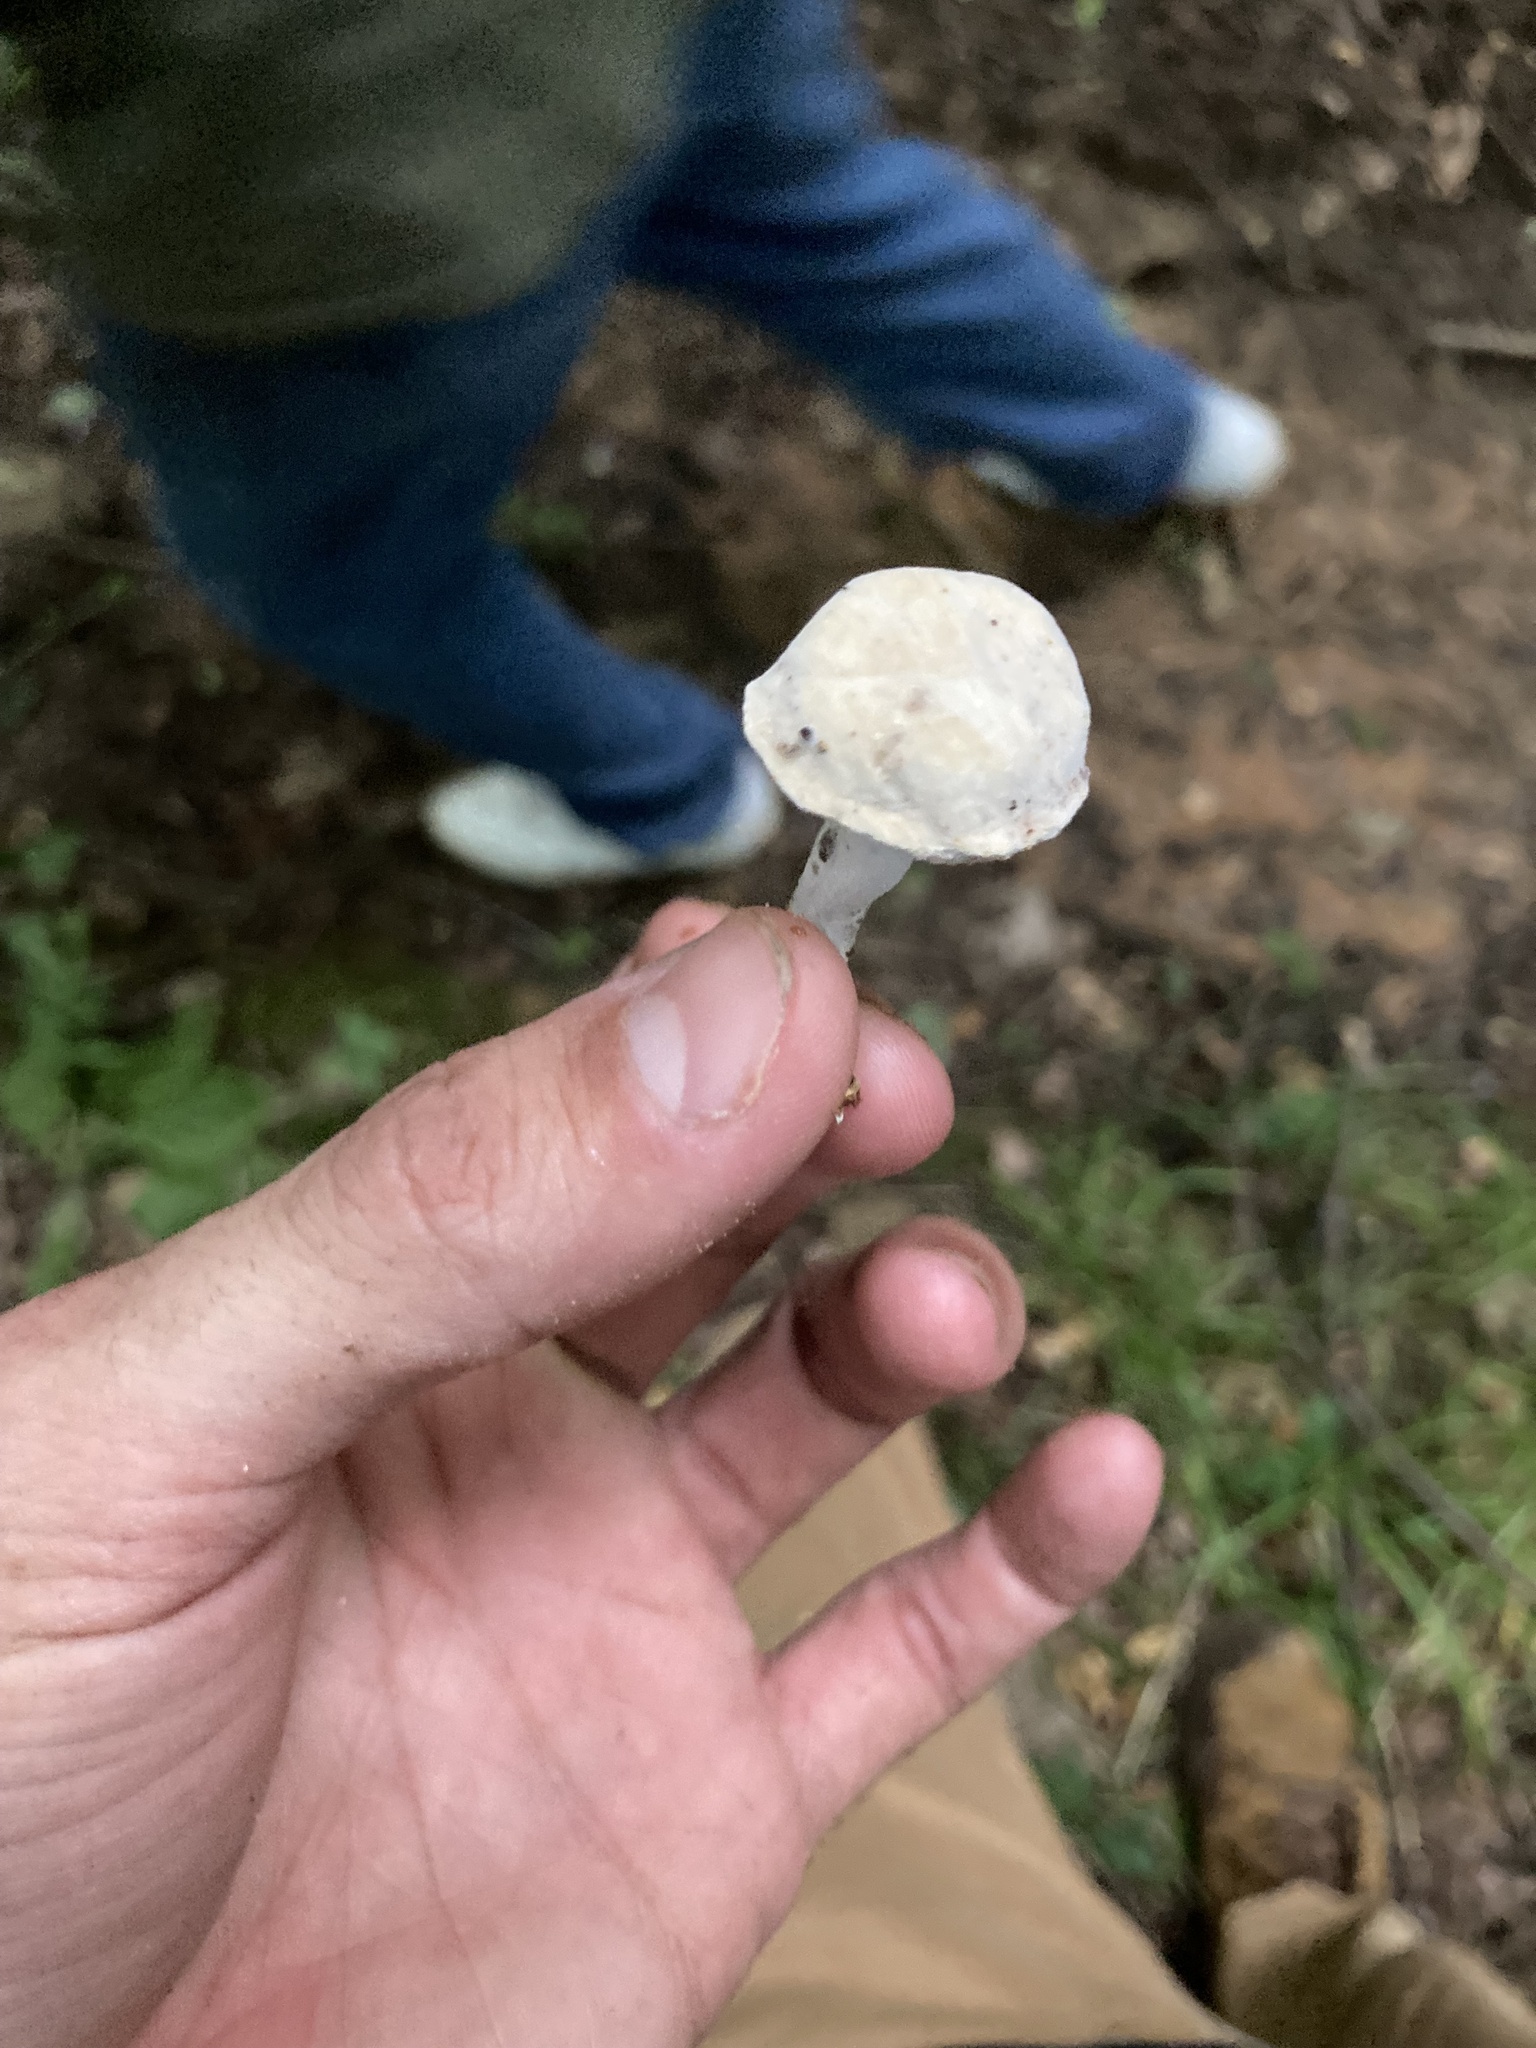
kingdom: Fungi
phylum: Ascomycota
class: Sordariomycetes
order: Hypocreales
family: Hypocreaceae
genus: Hypomyces
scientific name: Hypomyces chrysospermus
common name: Bolete mould
